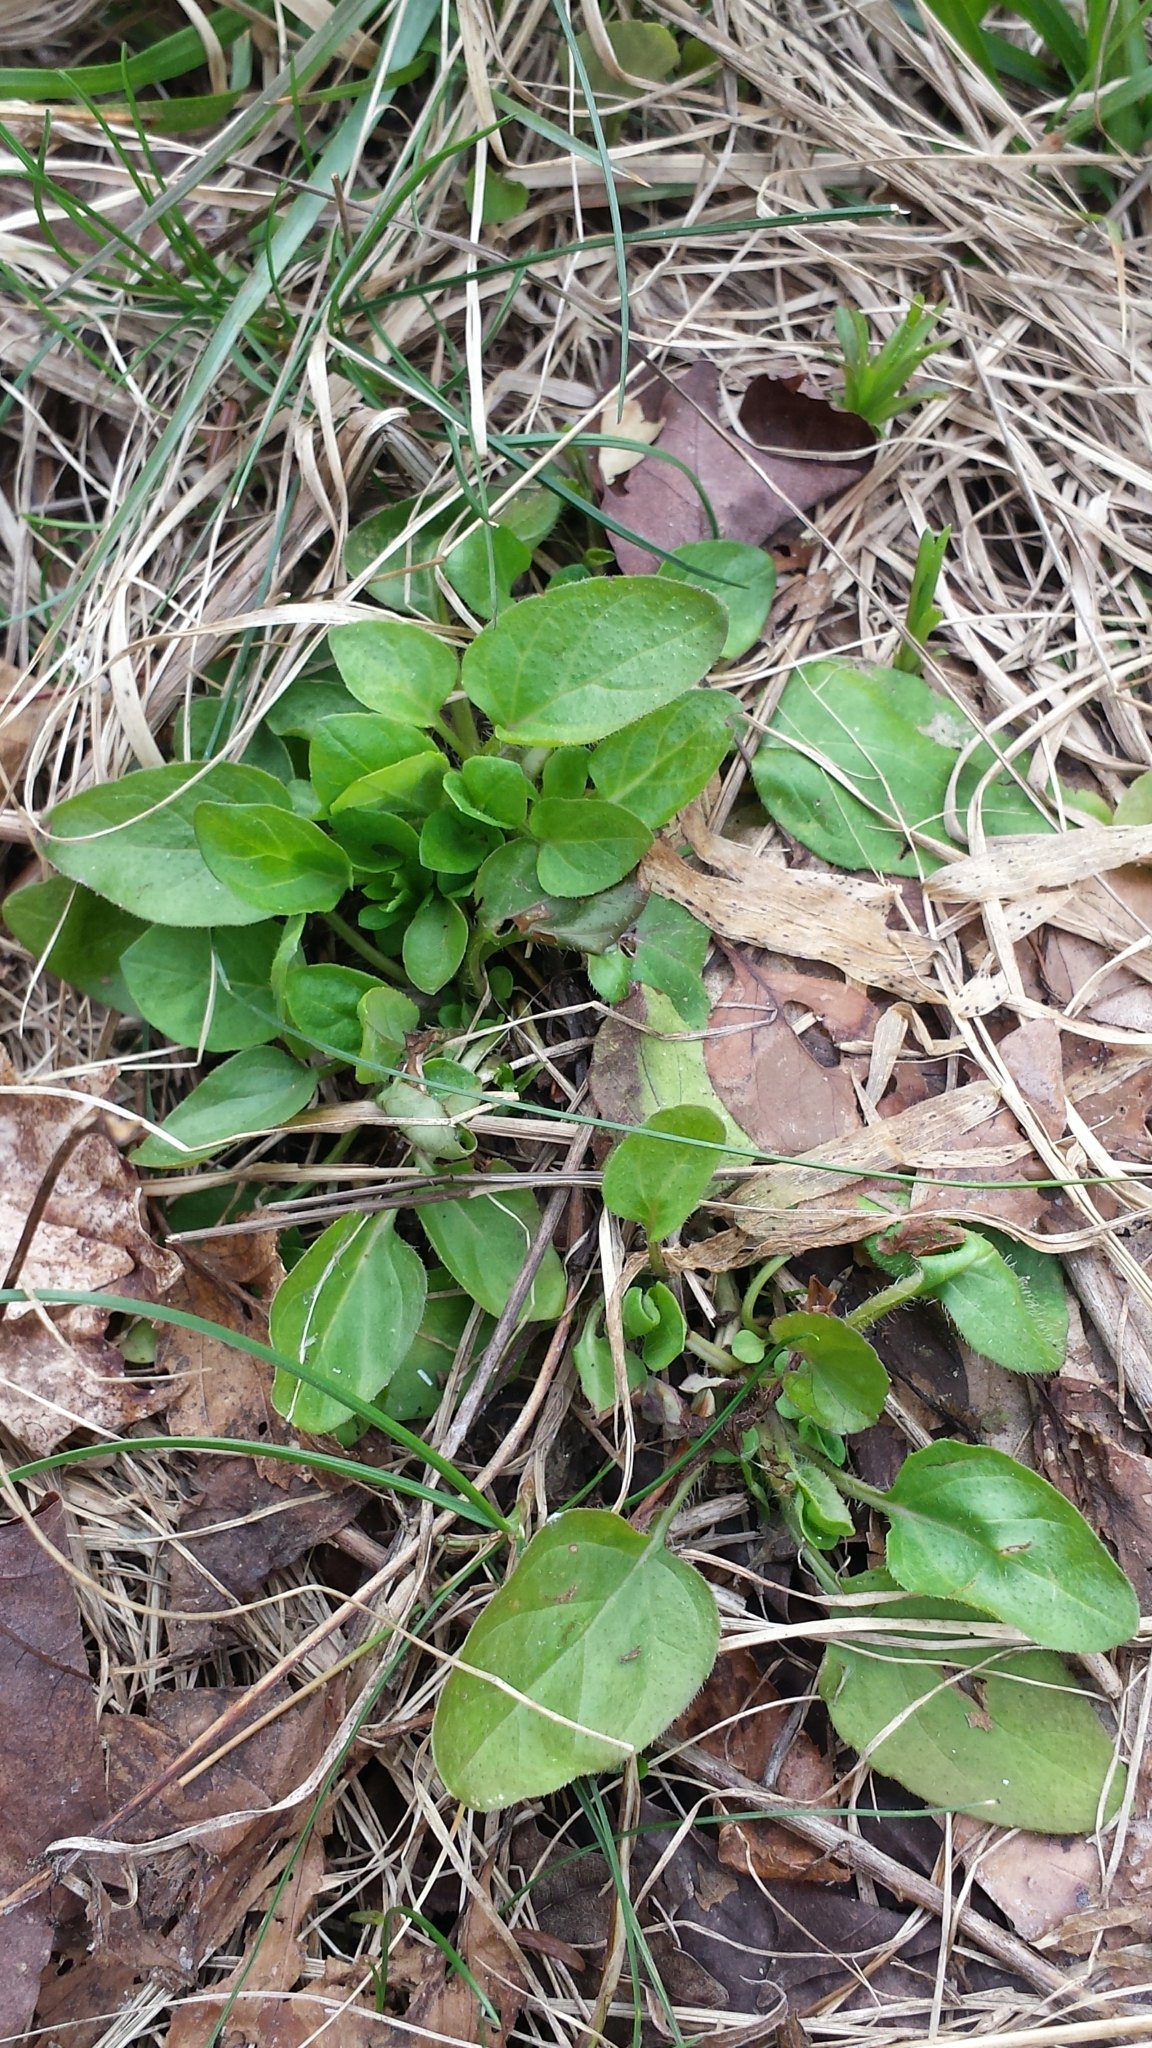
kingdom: Plantae
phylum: Tracheophyta
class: Magnoliopsida
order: Lamiales
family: Lamiaceae
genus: Prunella
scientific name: Prunella vulgaris
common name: Heal-all
